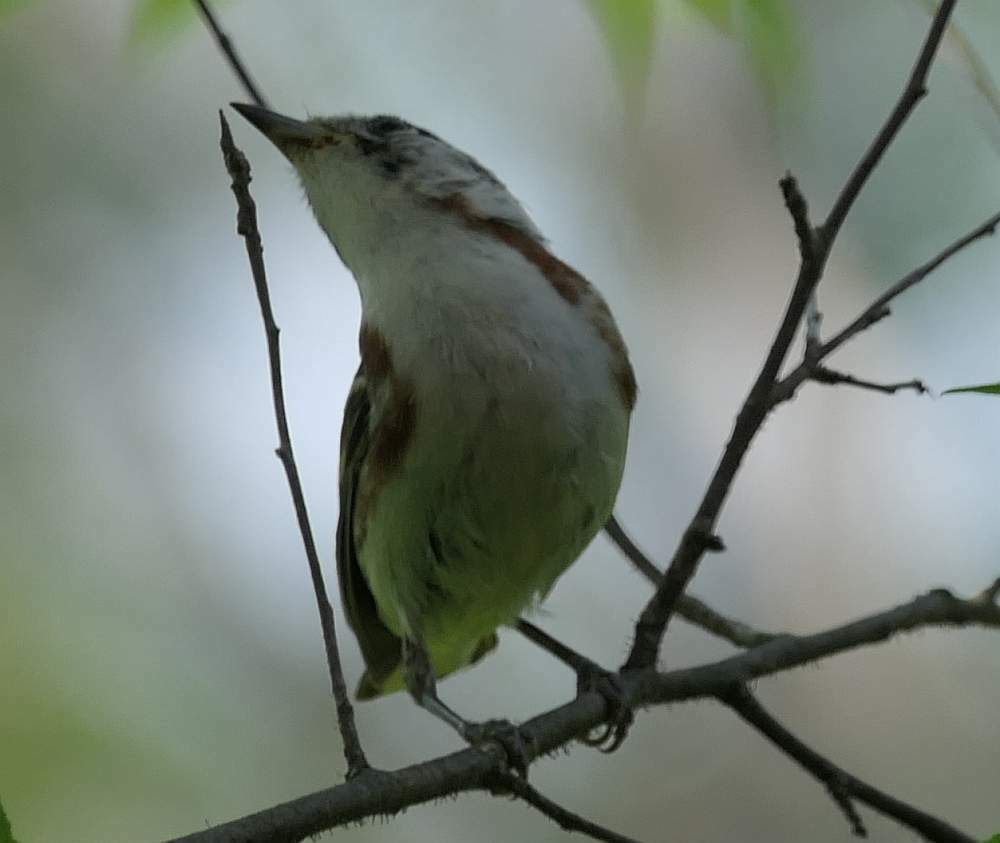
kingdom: Animalia
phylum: Chordata
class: Aves
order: Passeriformes
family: Parulidae
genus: Setophaga
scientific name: Setophaga pensylvanica
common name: Chestnut-sided warbler
